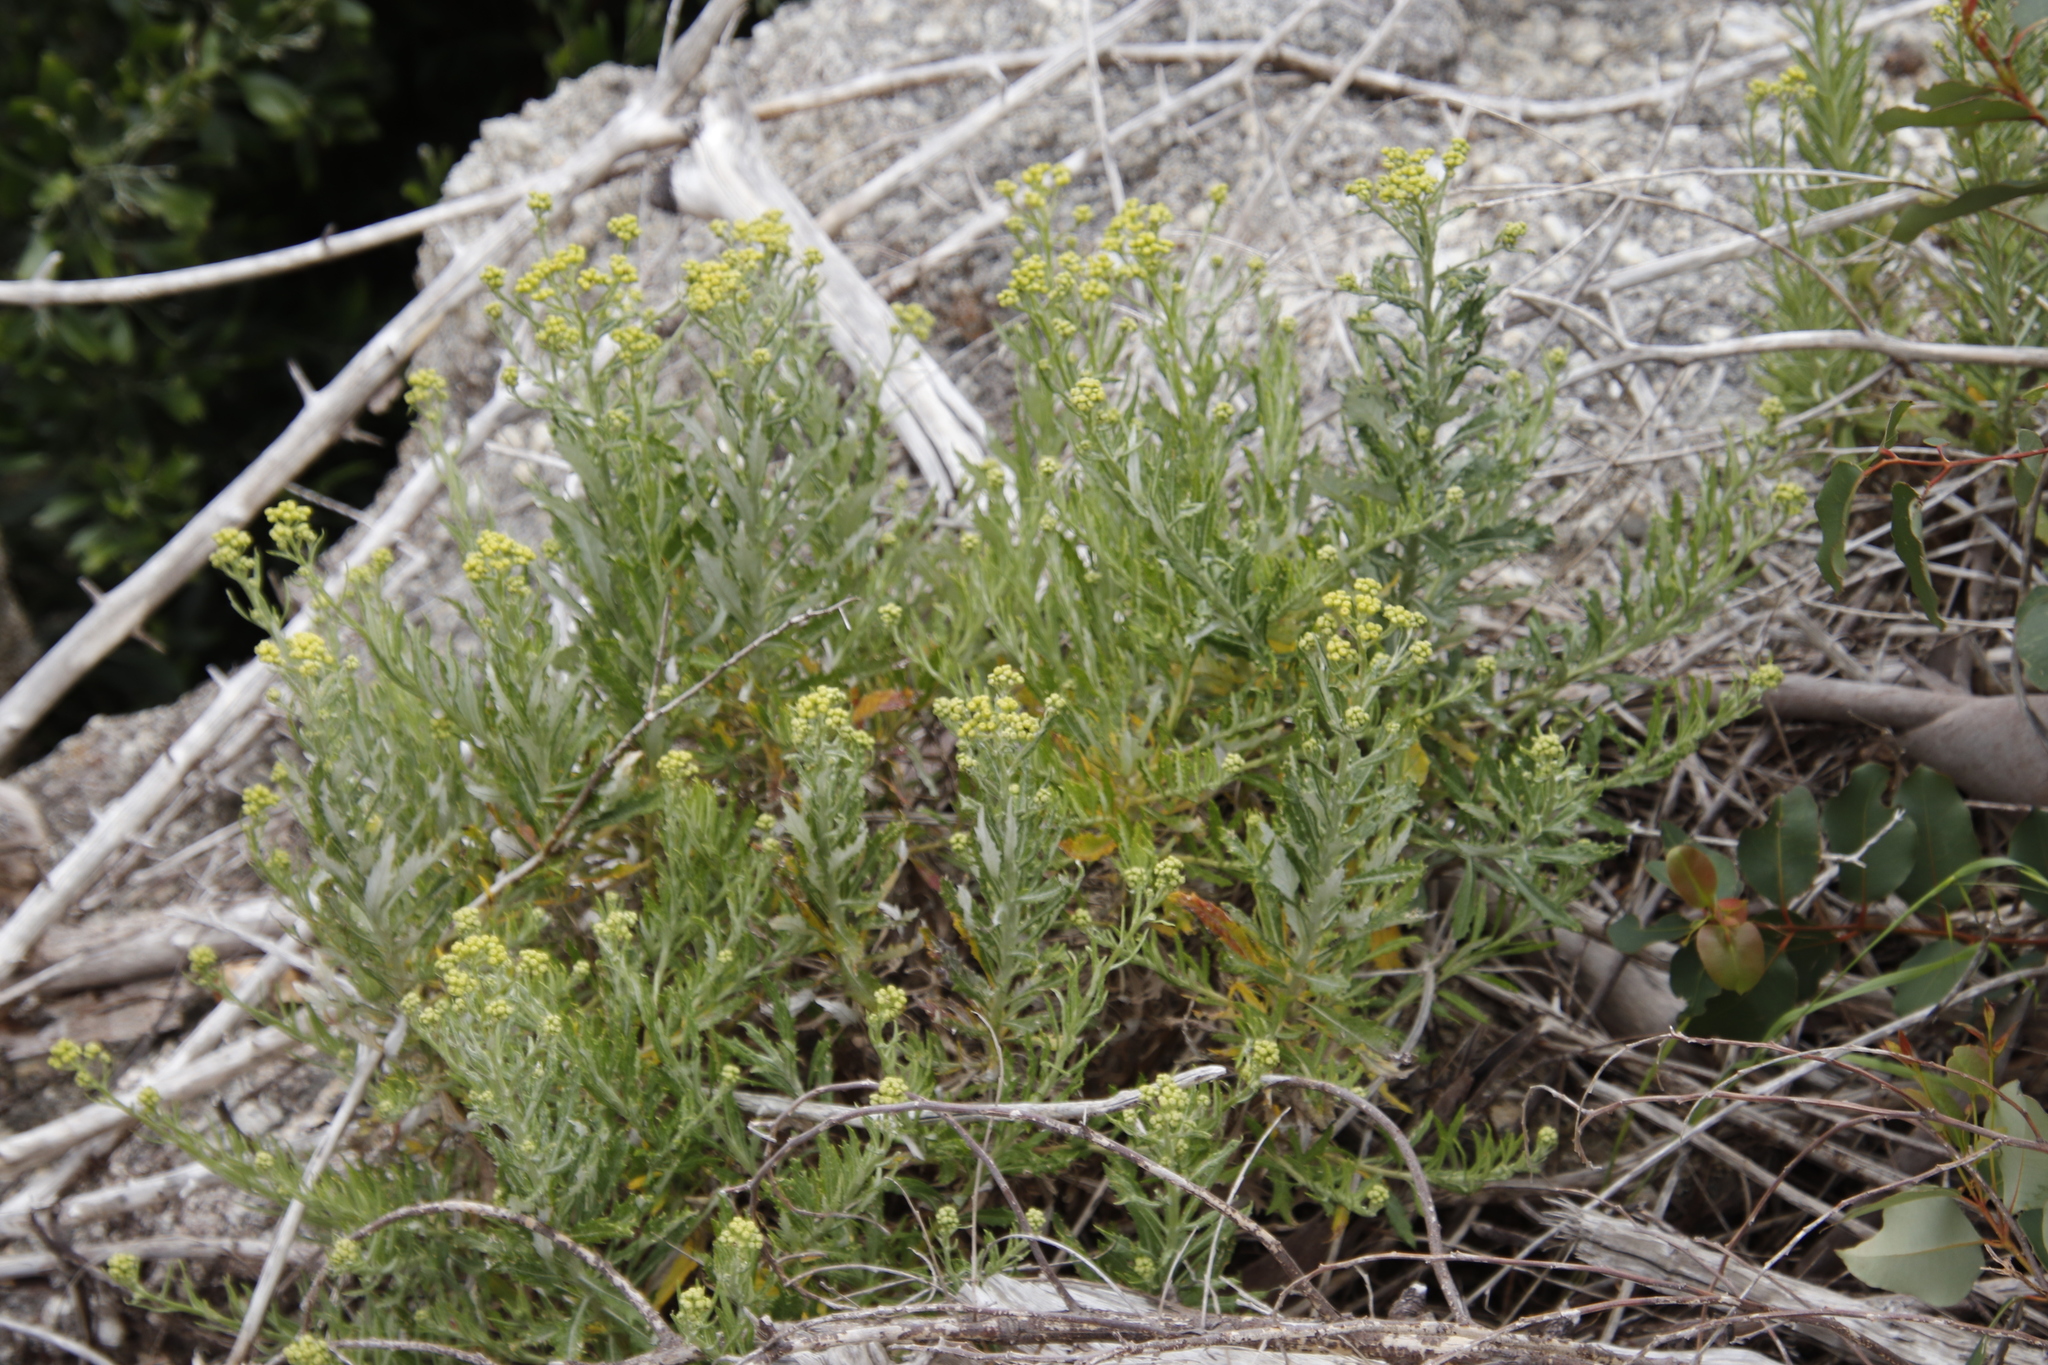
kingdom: Plantae
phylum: Tracheophyta
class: Magnoliopsida
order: Asterales
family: Asteraceae
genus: Senecio
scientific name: Senecio pterophorus
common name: Shoddy ragwort
